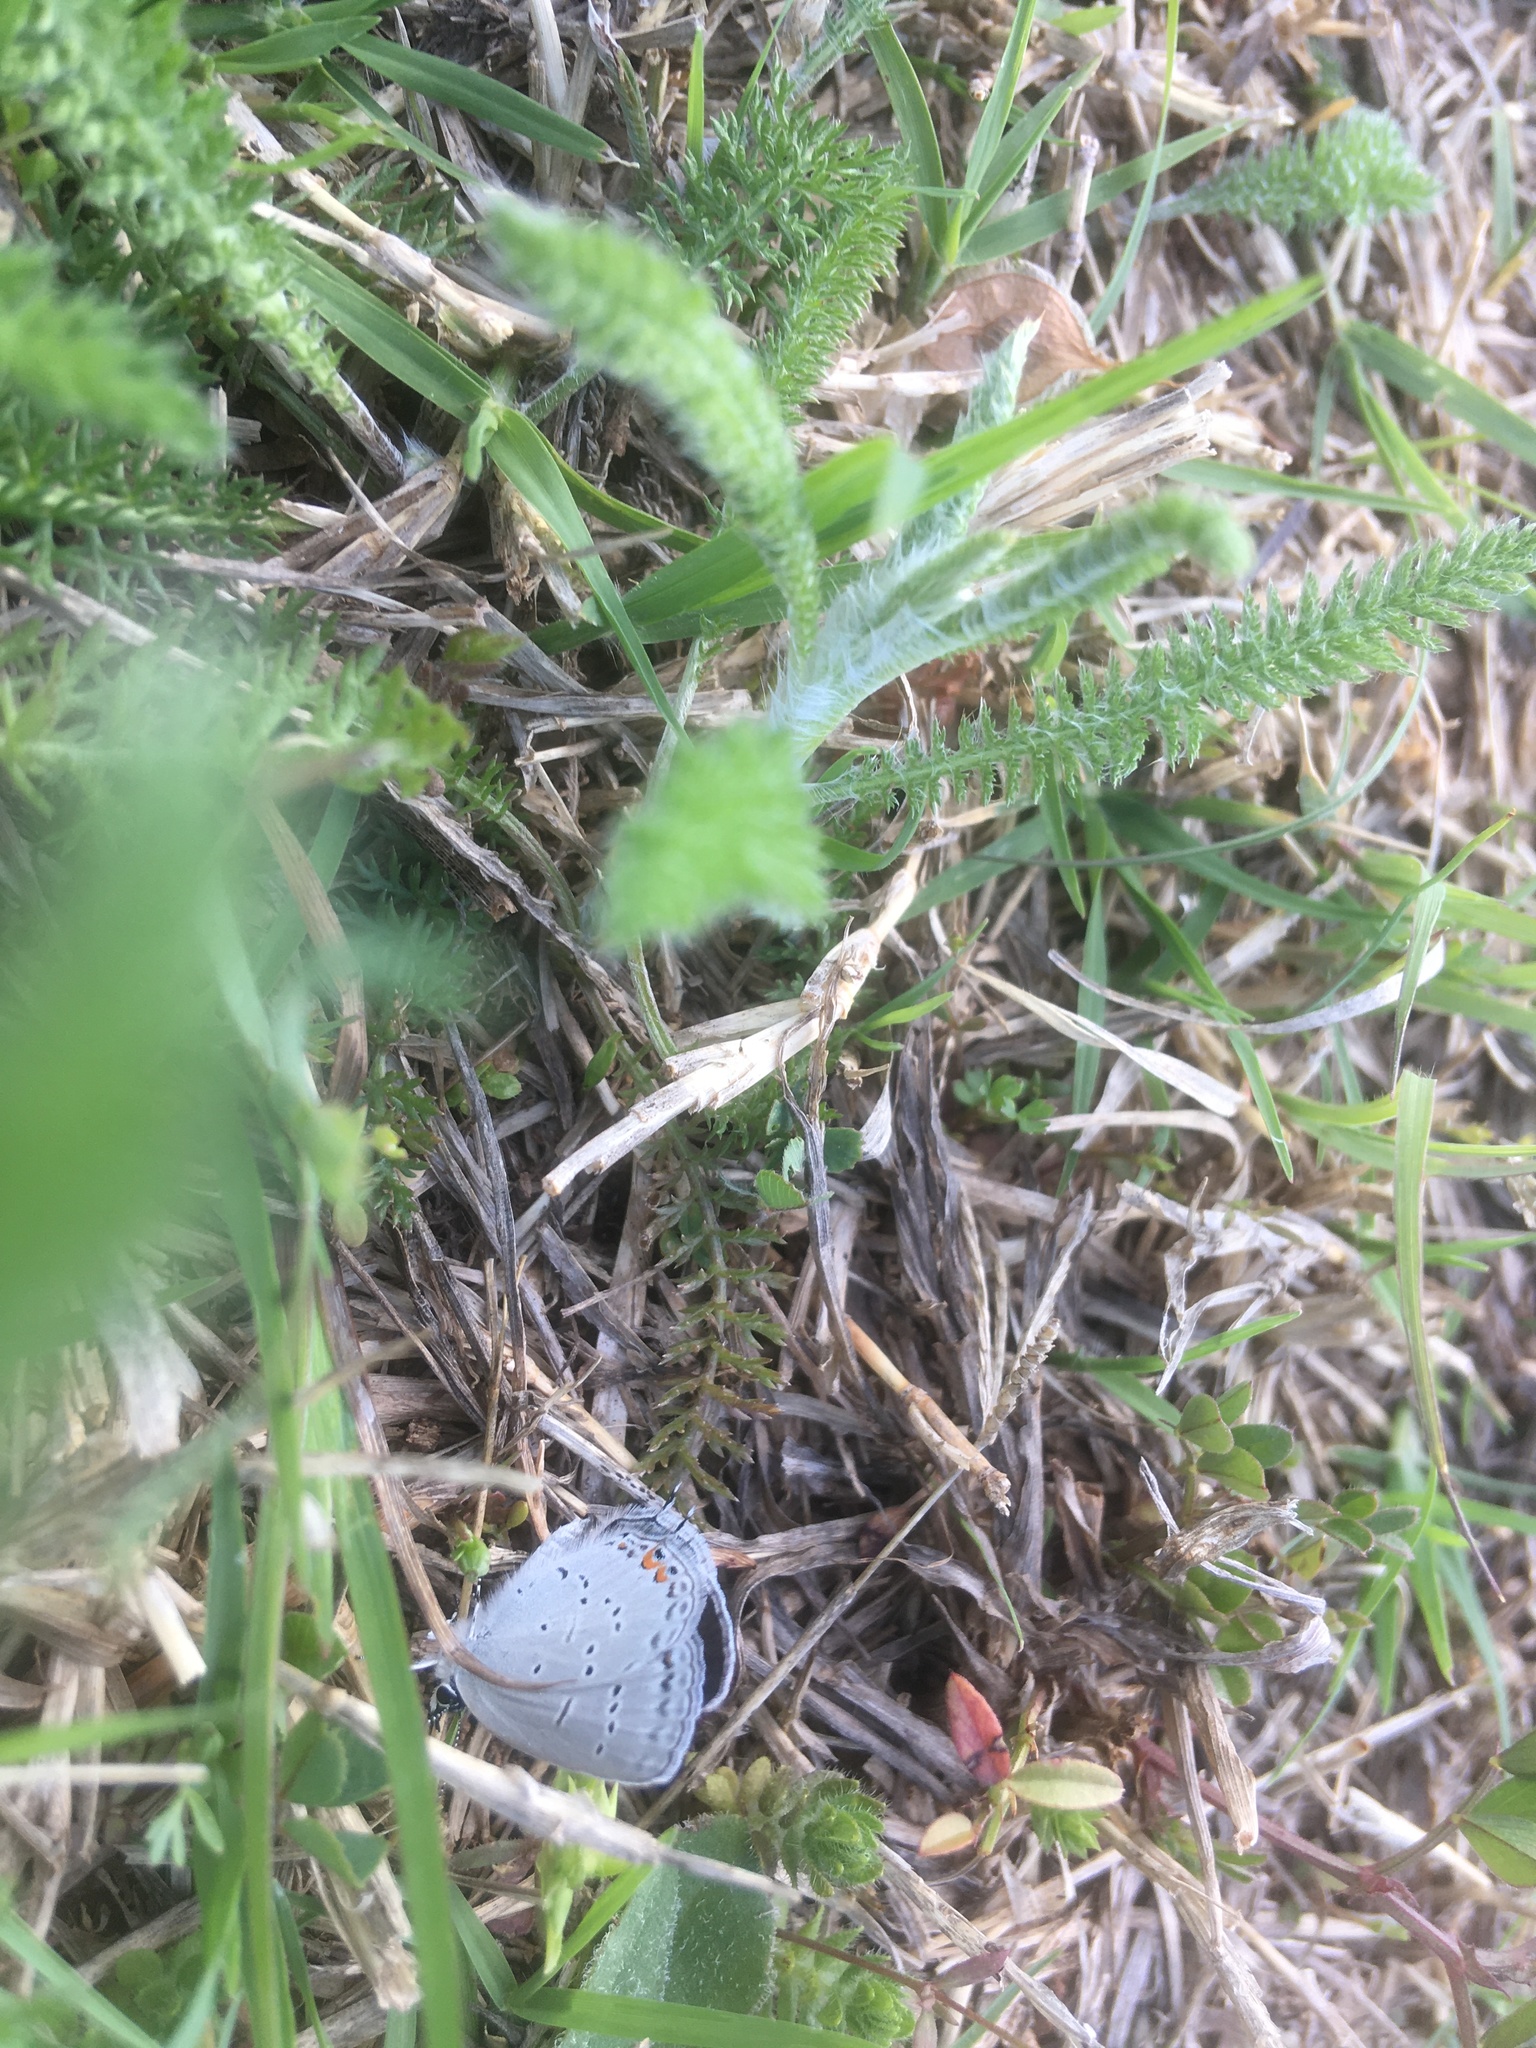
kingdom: Animalia
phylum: Arthropoda
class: Insecta
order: Lepidoptera
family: Lycaenidae
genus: Elkalyce
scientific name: Elkalyce comyntas
